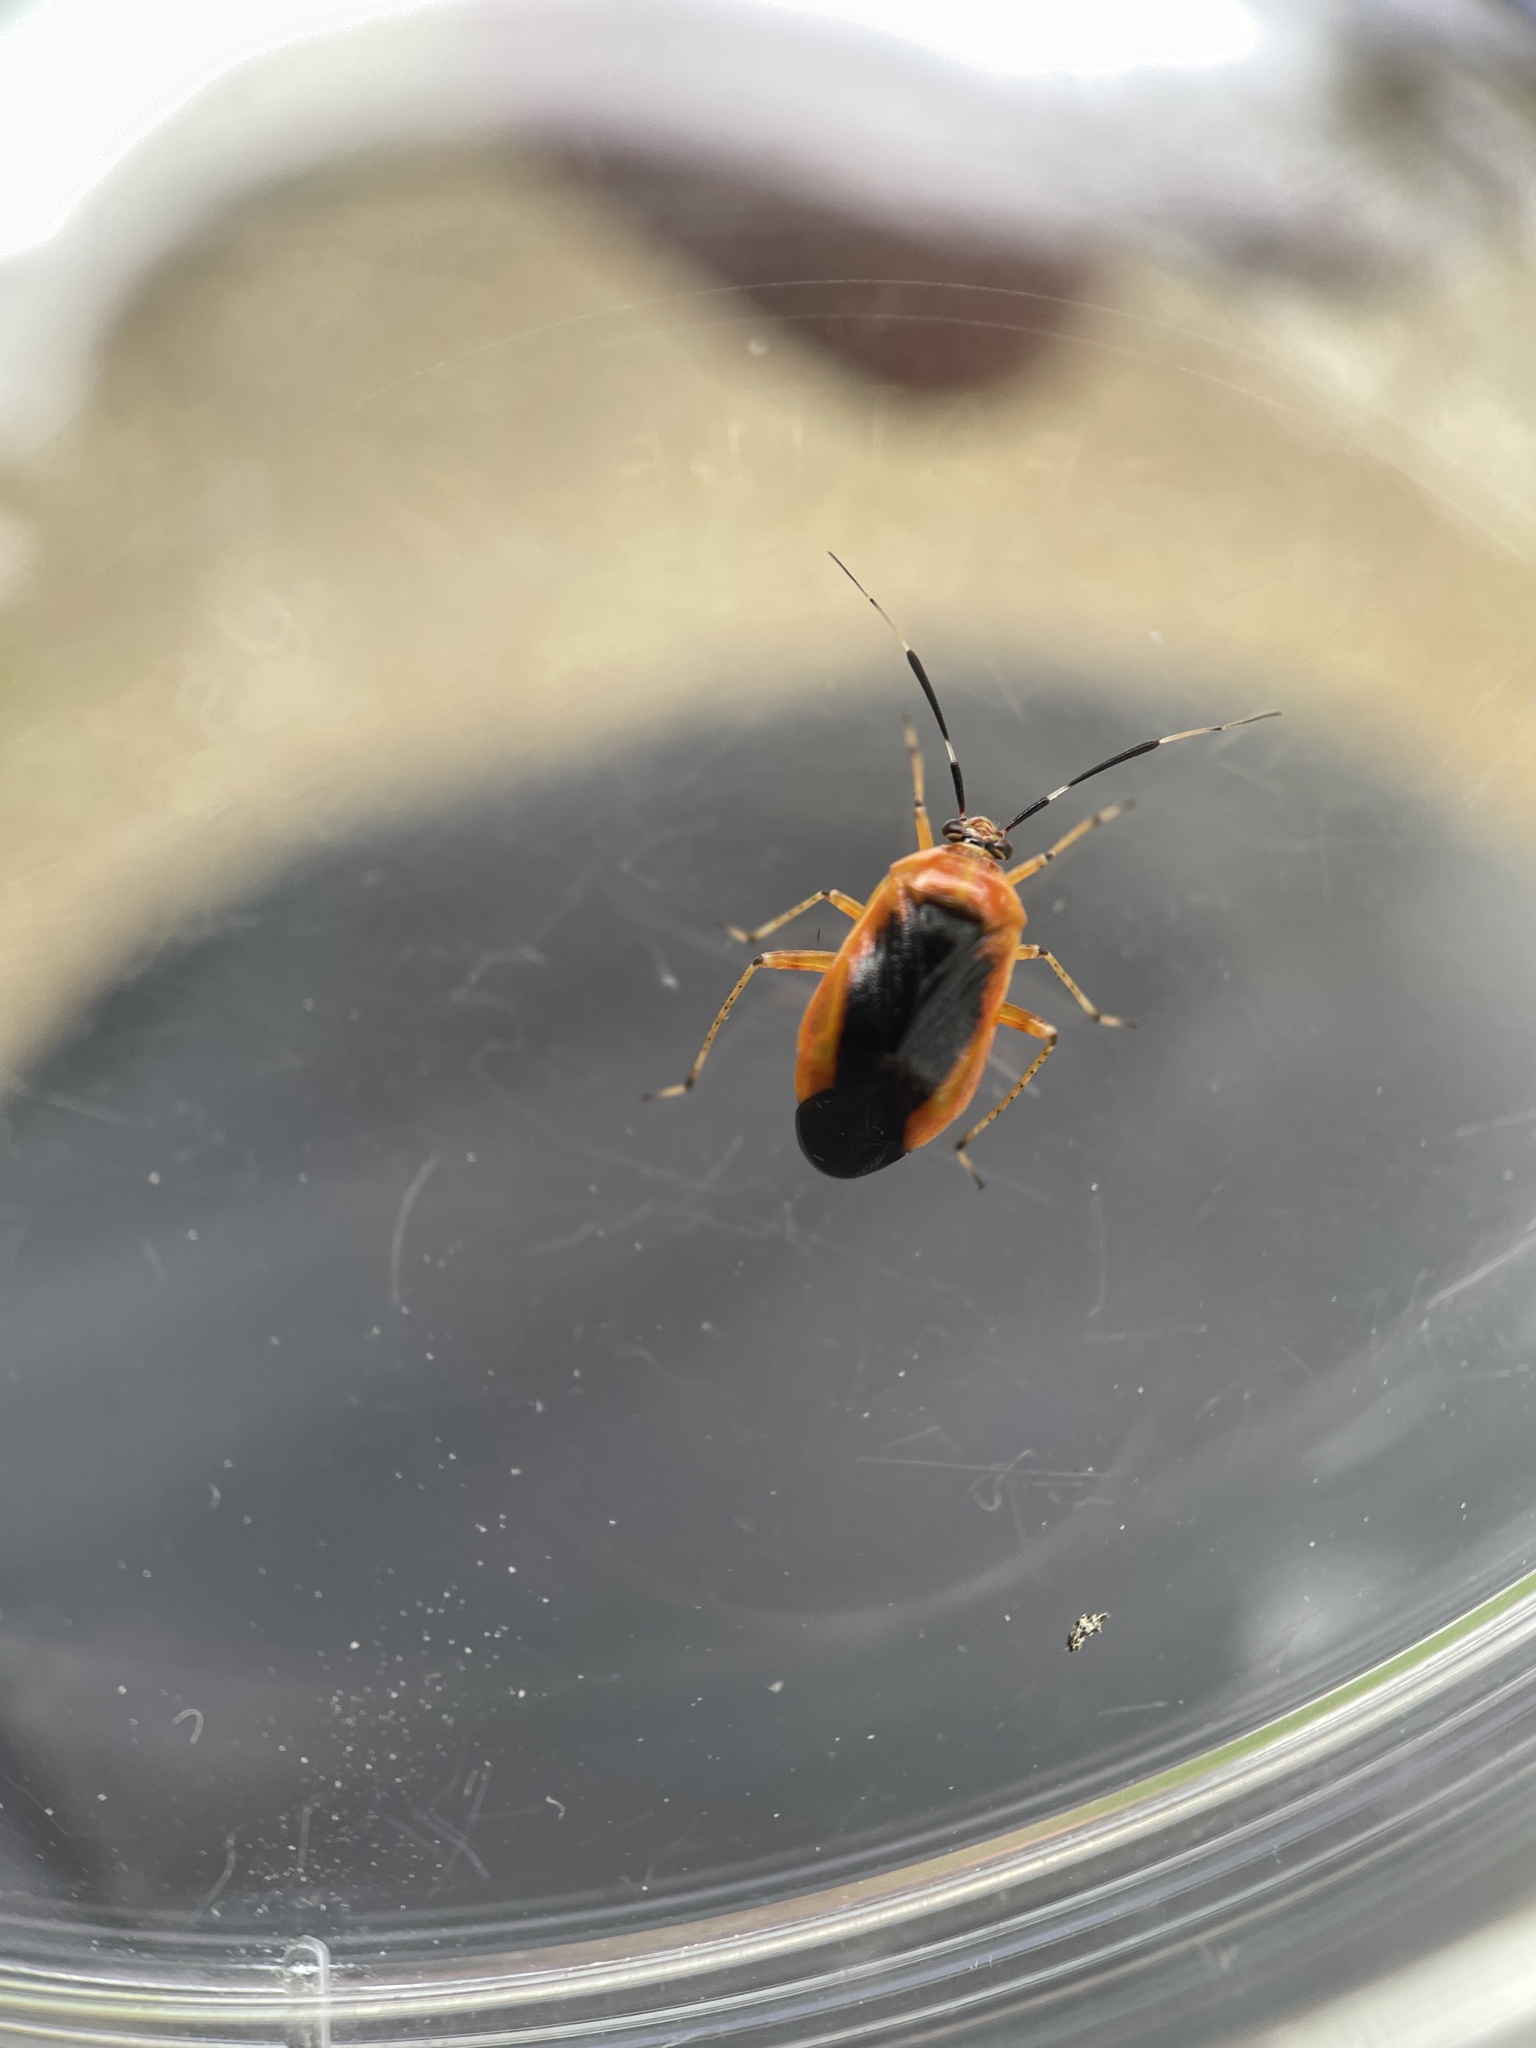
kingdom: Animalia
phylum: Arthropoda
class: Insecta
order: Hemiptera
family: Miridae
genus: Metriorrhynchomiris
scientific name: Metriorrhynchomiris dislocatus
